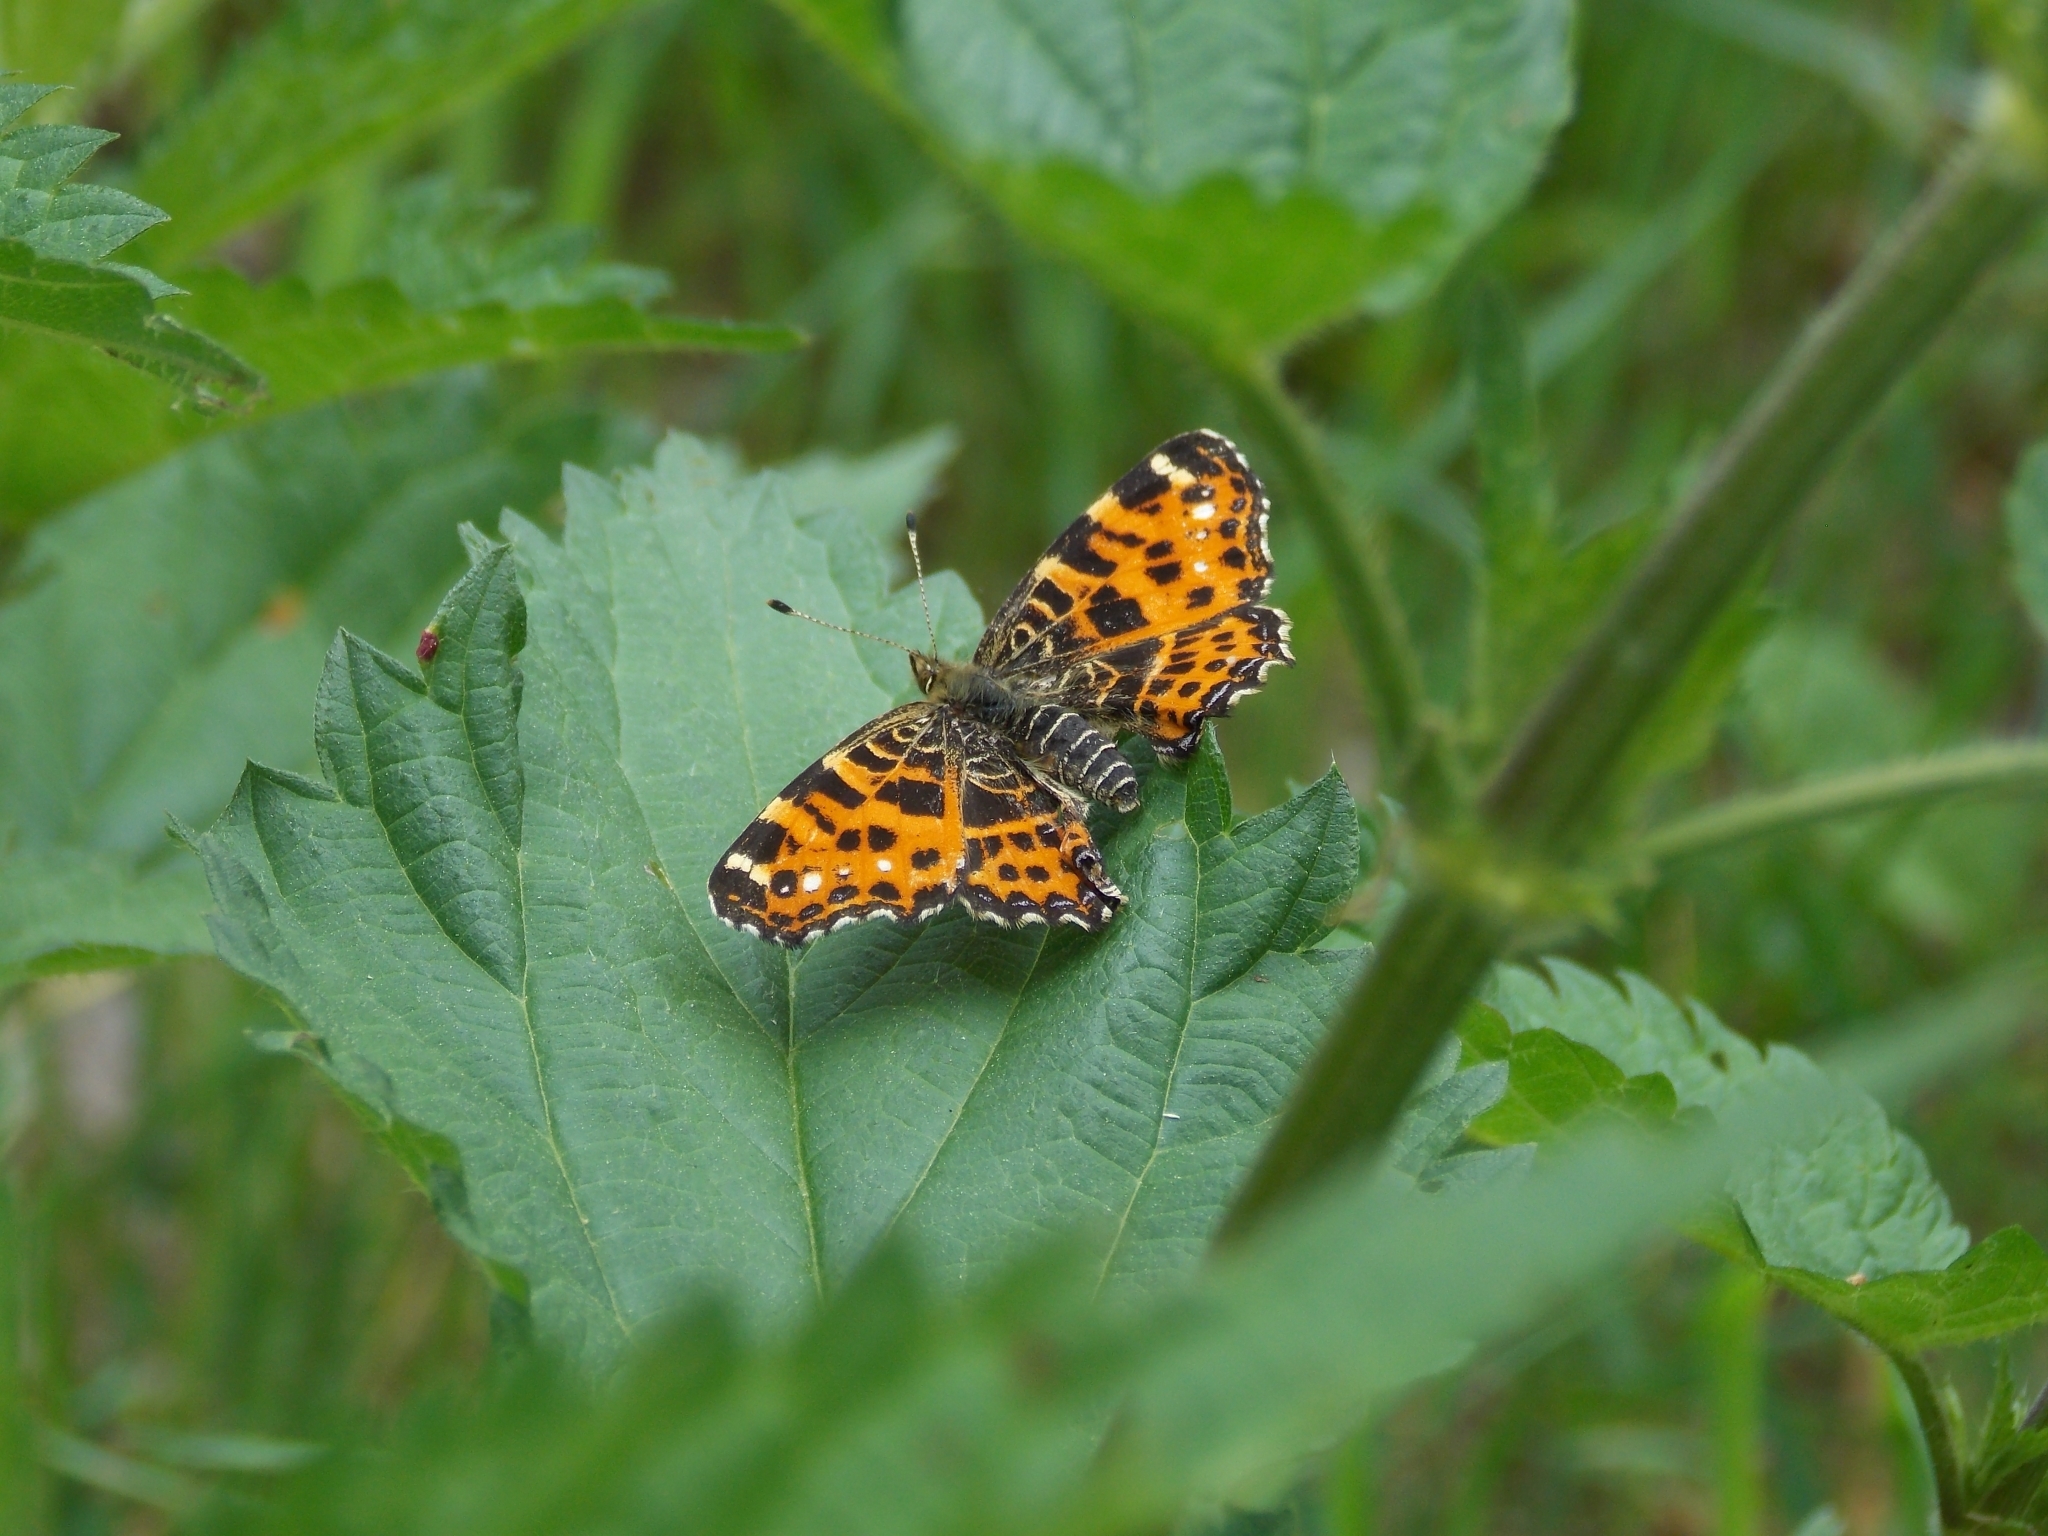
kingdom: Animalia
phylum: Arthropoda
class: Insecta
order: Lepidoptera
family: Nymphalidae
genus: Araschnia
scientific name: Araschnia levana
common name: Map butterfly
